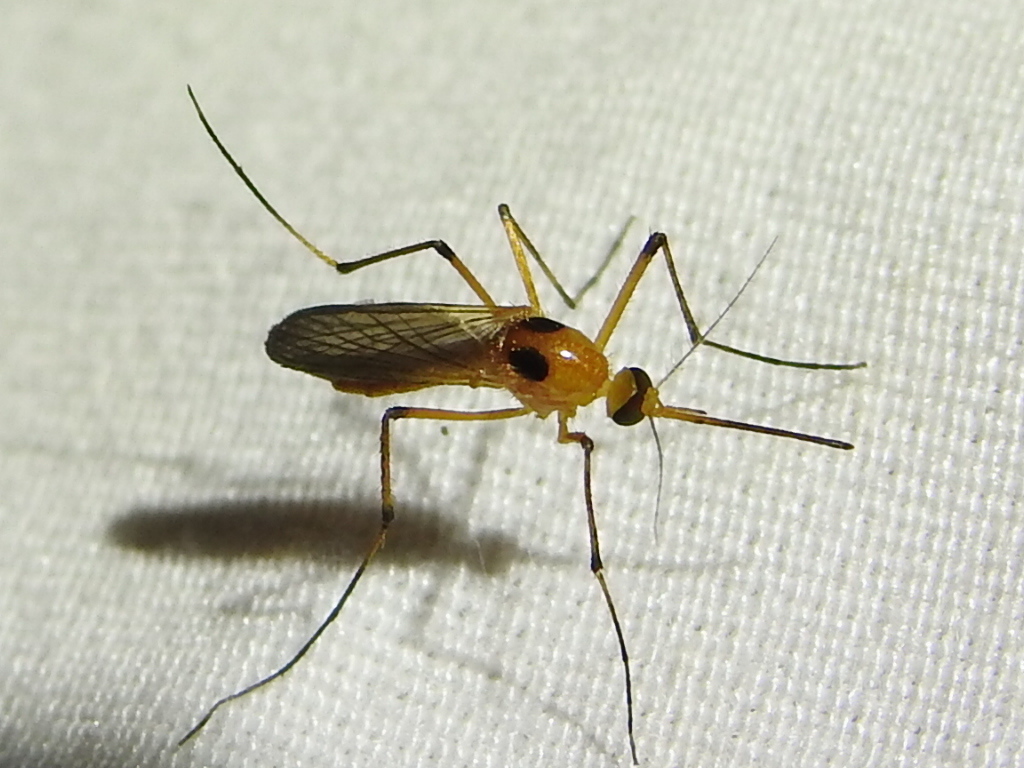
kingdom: Animalia
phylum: Arthropoda
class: Insecta
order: Diptera
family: Culicidae
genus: Aedes
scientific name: Aedes bimaculatus
